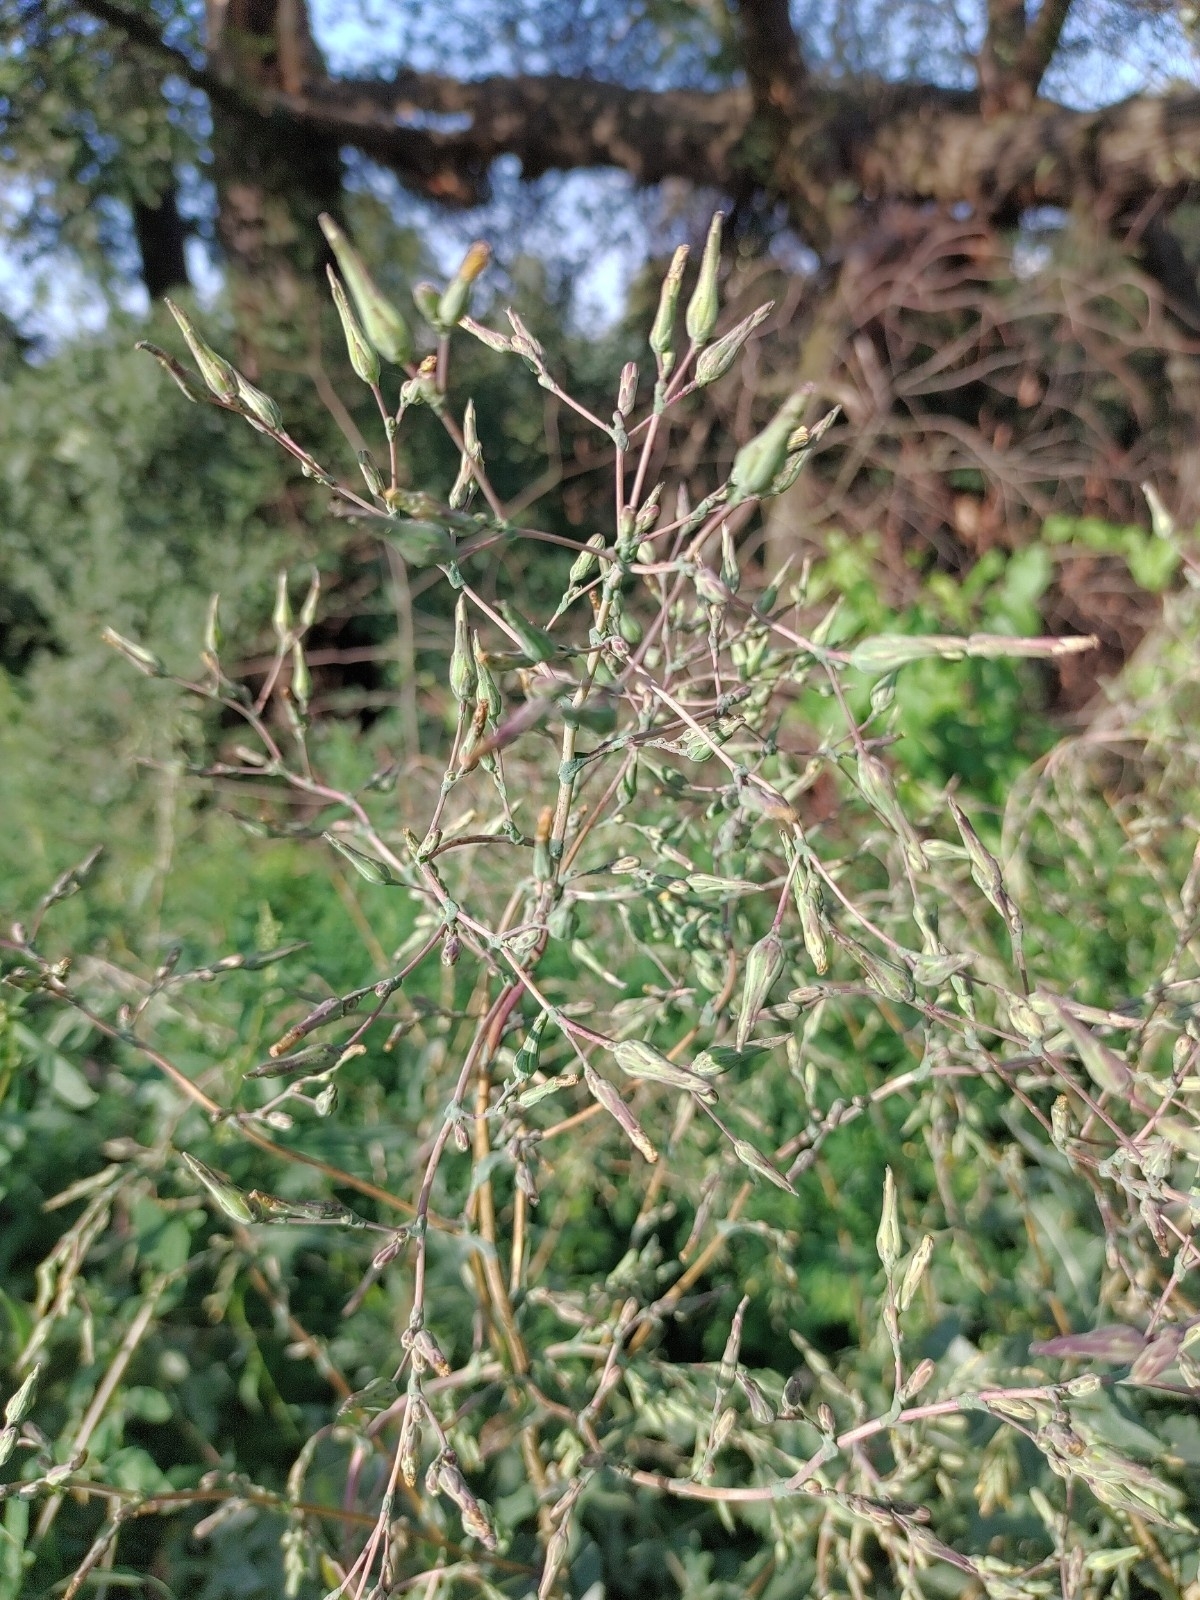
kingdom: Plantae
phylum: Tracheophyta
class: Magnoliopsida
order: Asterales
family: Asteraceae
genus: Lactuca
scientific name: Lactuca serriola
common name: Prickly lettuce
